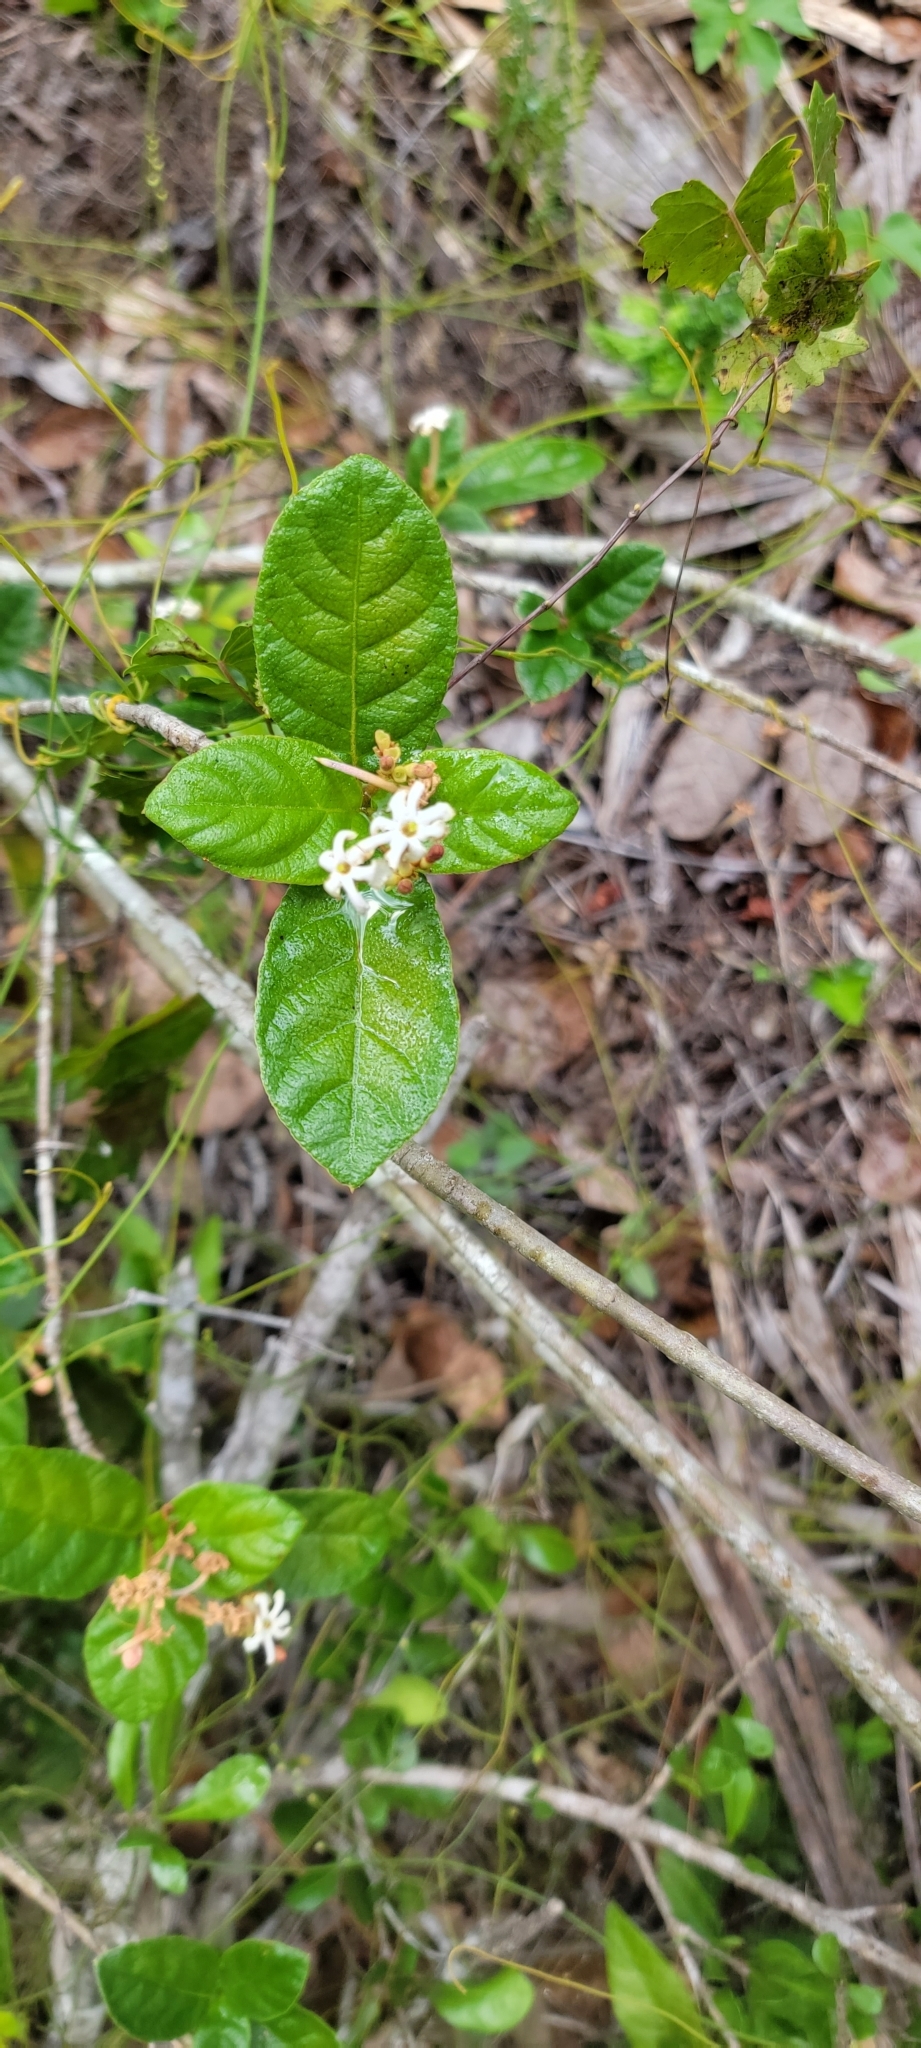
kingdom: Plantae
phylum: Tracheophyta
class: Magnoliopsida
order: Gentianales
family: Rubiaceae
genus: Guettarda
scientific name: Guettarda scabra
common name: Pigeon bay
